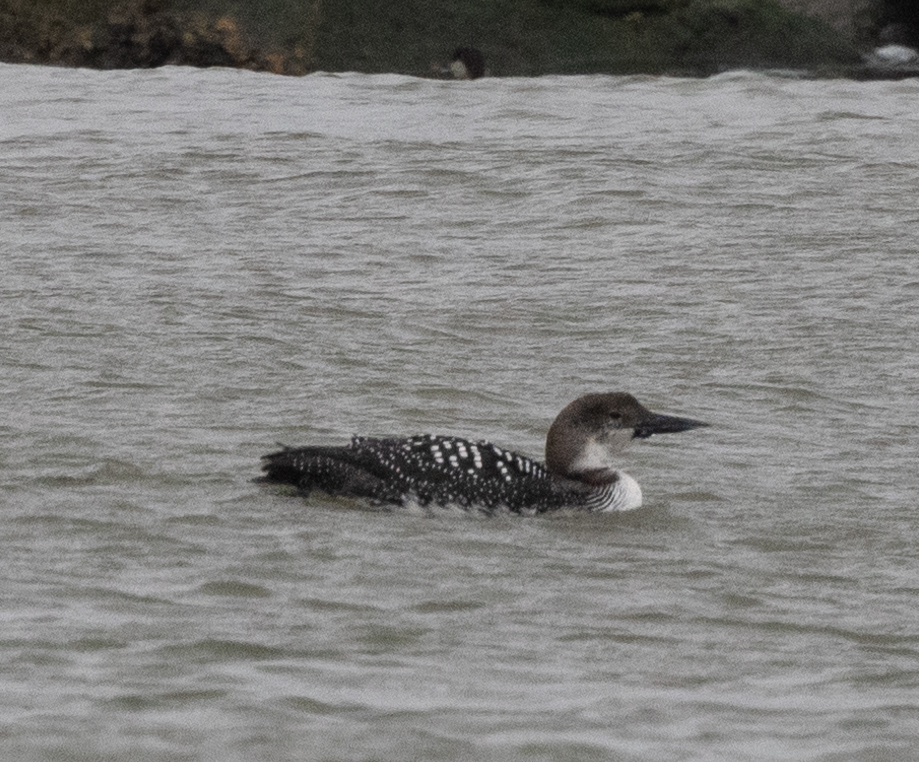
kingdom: Animalia
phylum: Chordata
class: Aves
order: Gaviiformes
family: Gaviidae
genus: Gavia
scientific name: Gavia immer
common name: Common loon
